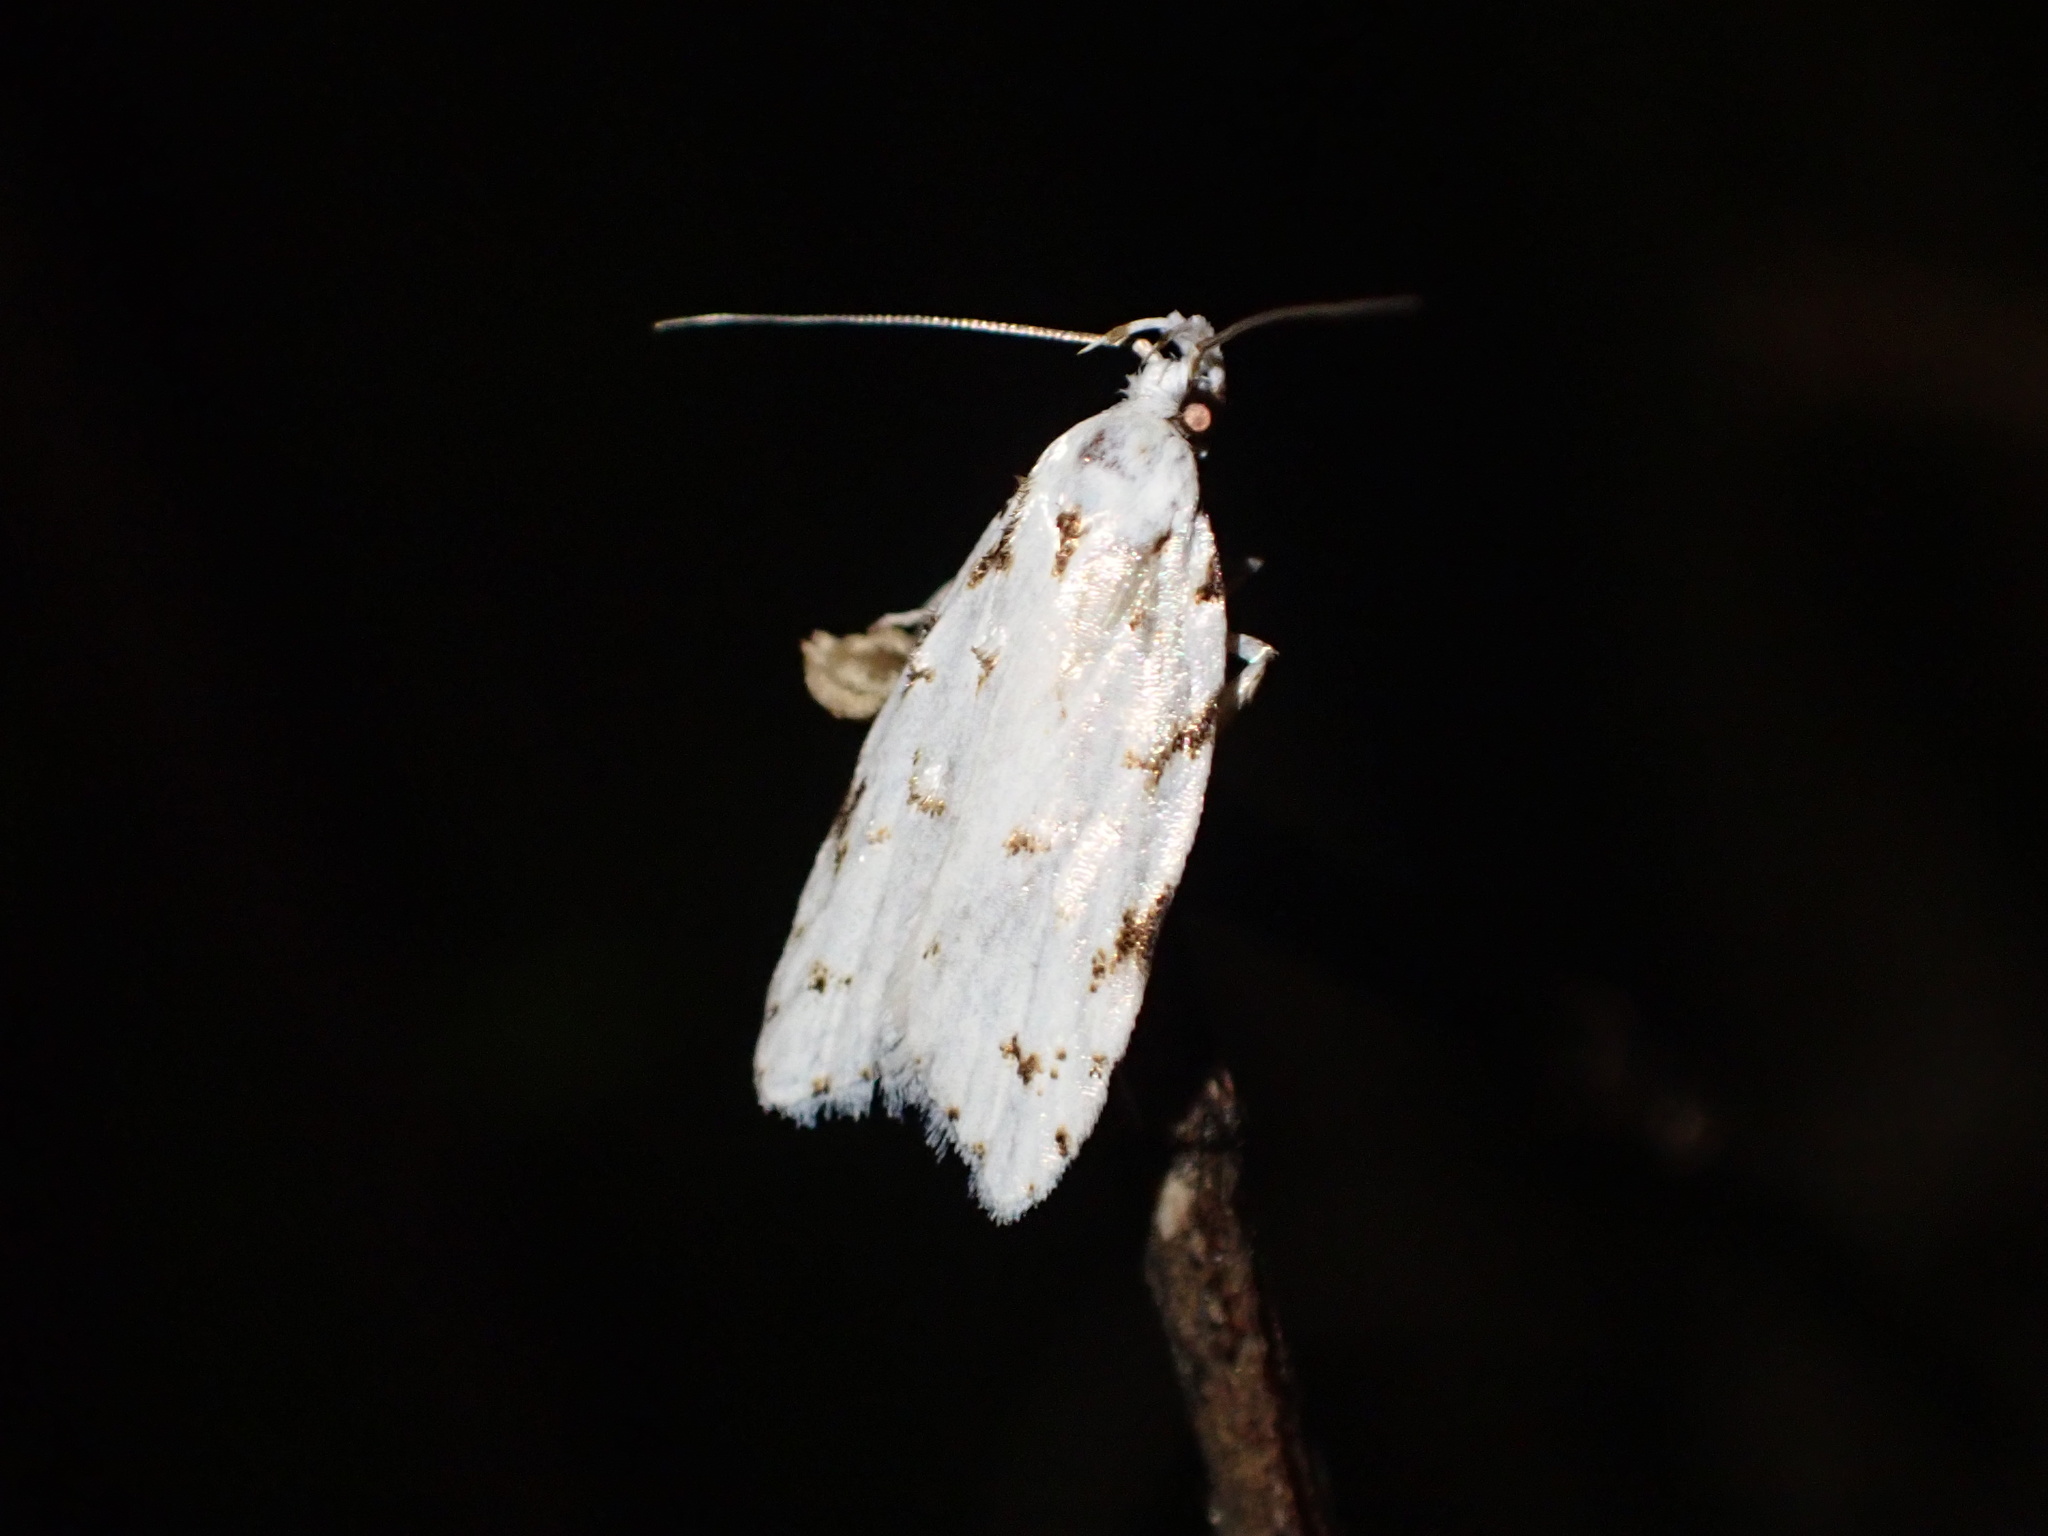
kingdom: Animalia
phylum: Arthropoda
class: Insecta
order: Lepidoptera
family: Oecophoridae
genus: Izatha
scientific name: Izatha hudsoni
